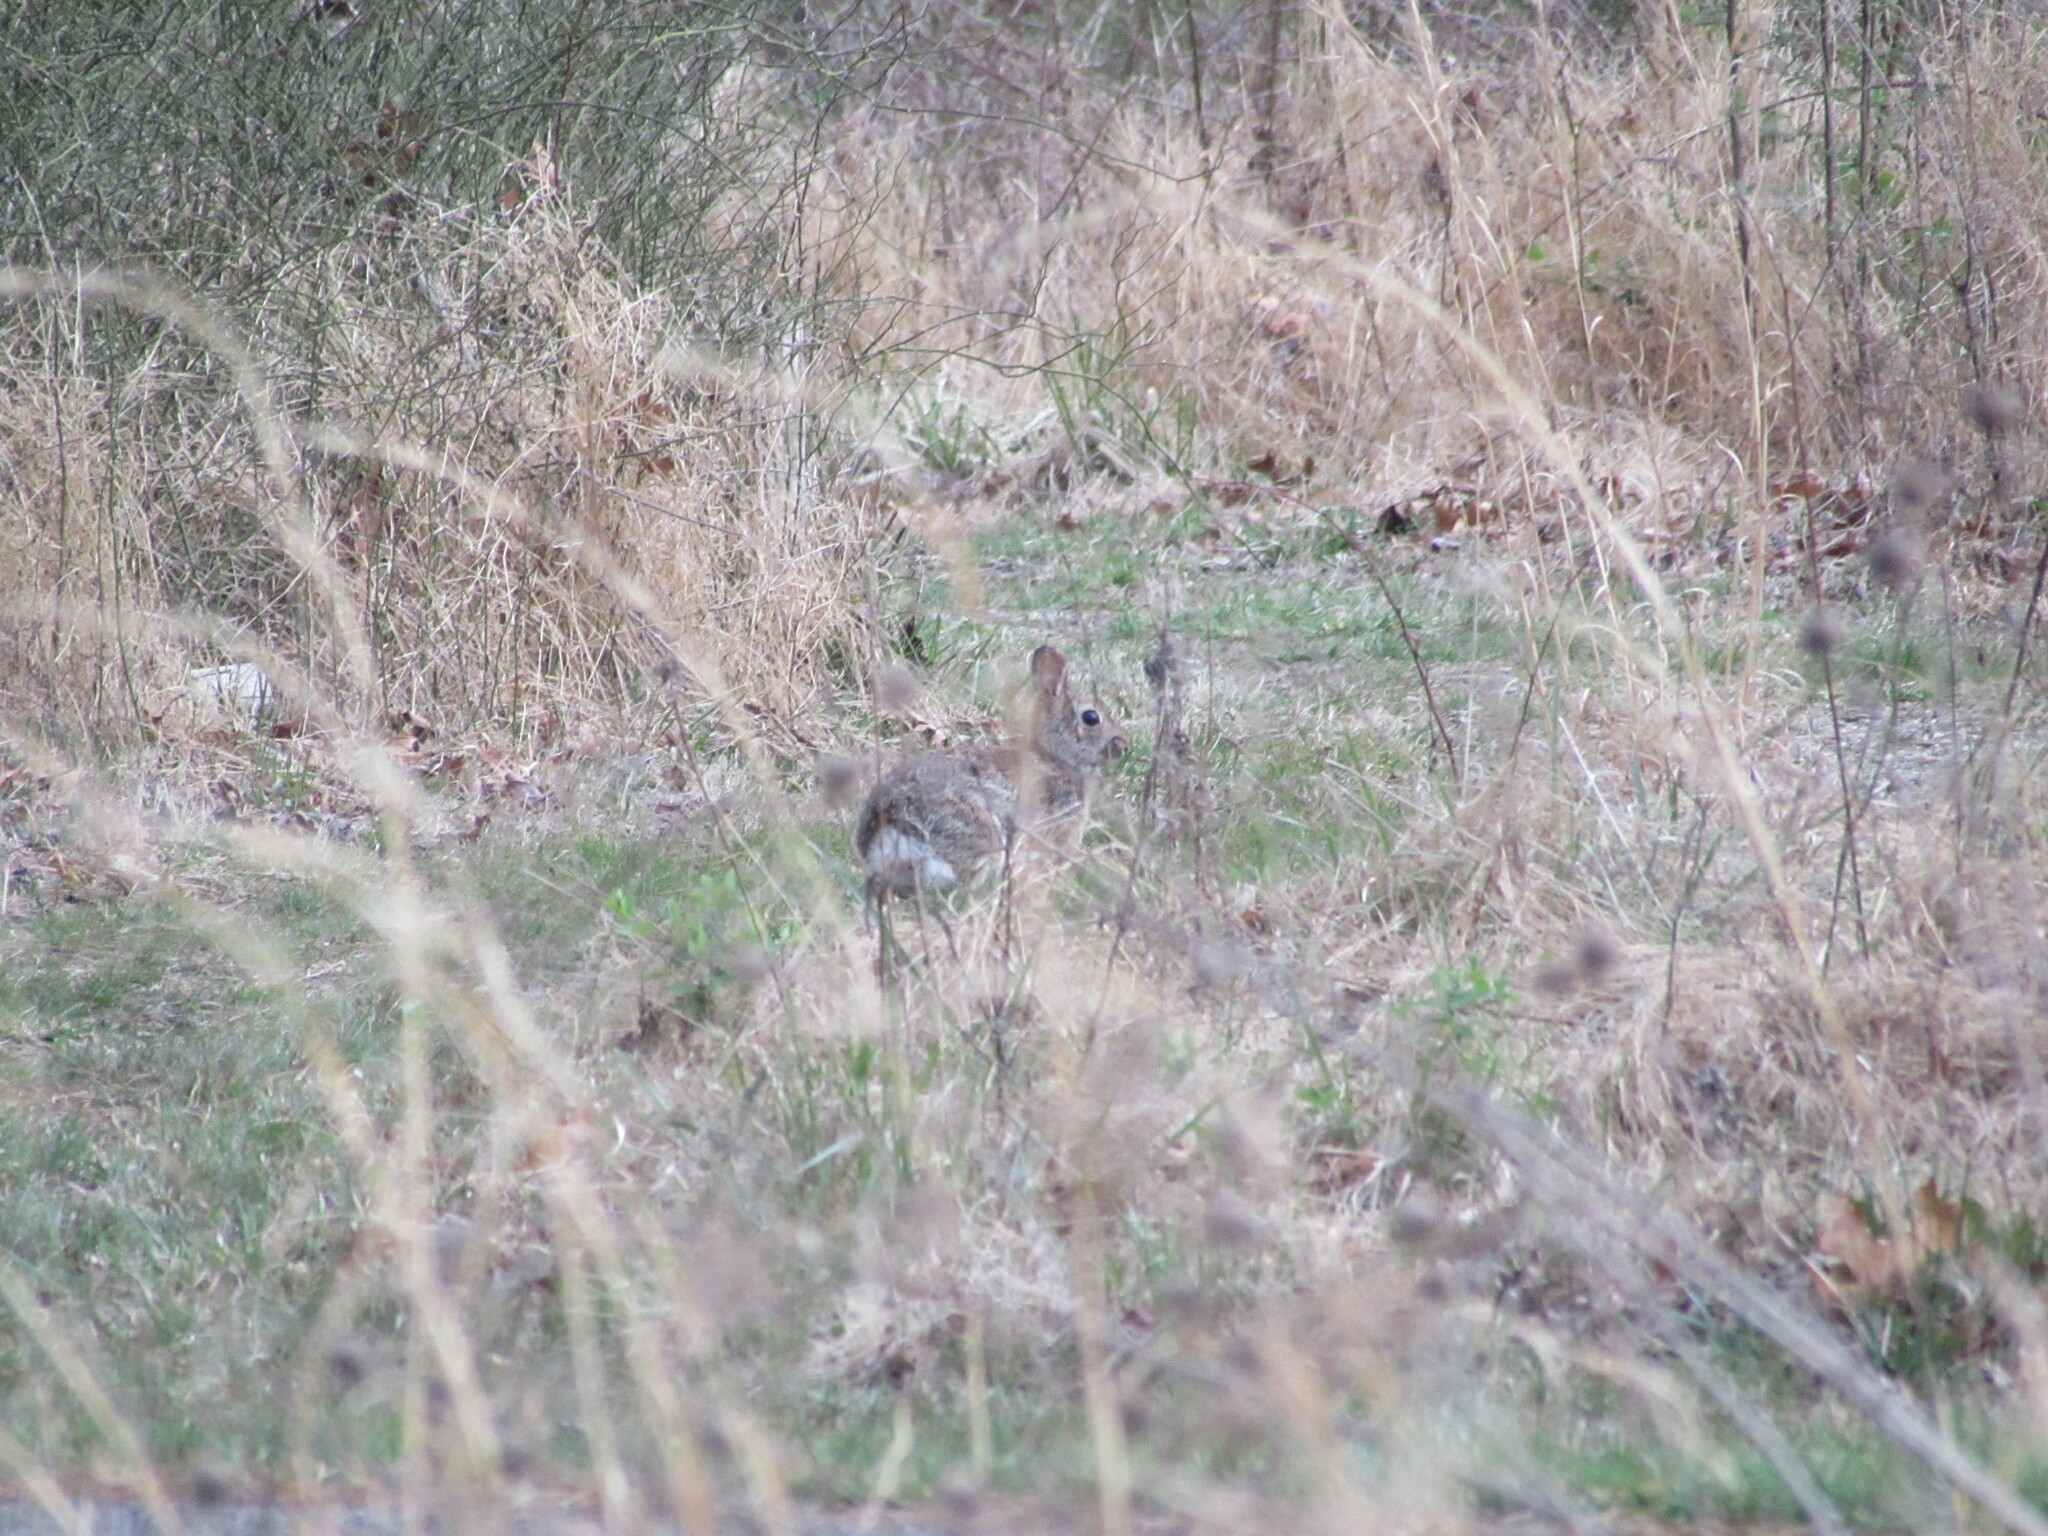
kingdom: Animalia
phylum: Chordata
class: Mammalia
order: Lagomorpha
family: Leporidae
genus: Sylvilagus
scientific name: Sylvilagus floridanus
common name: Eastern cottontail
